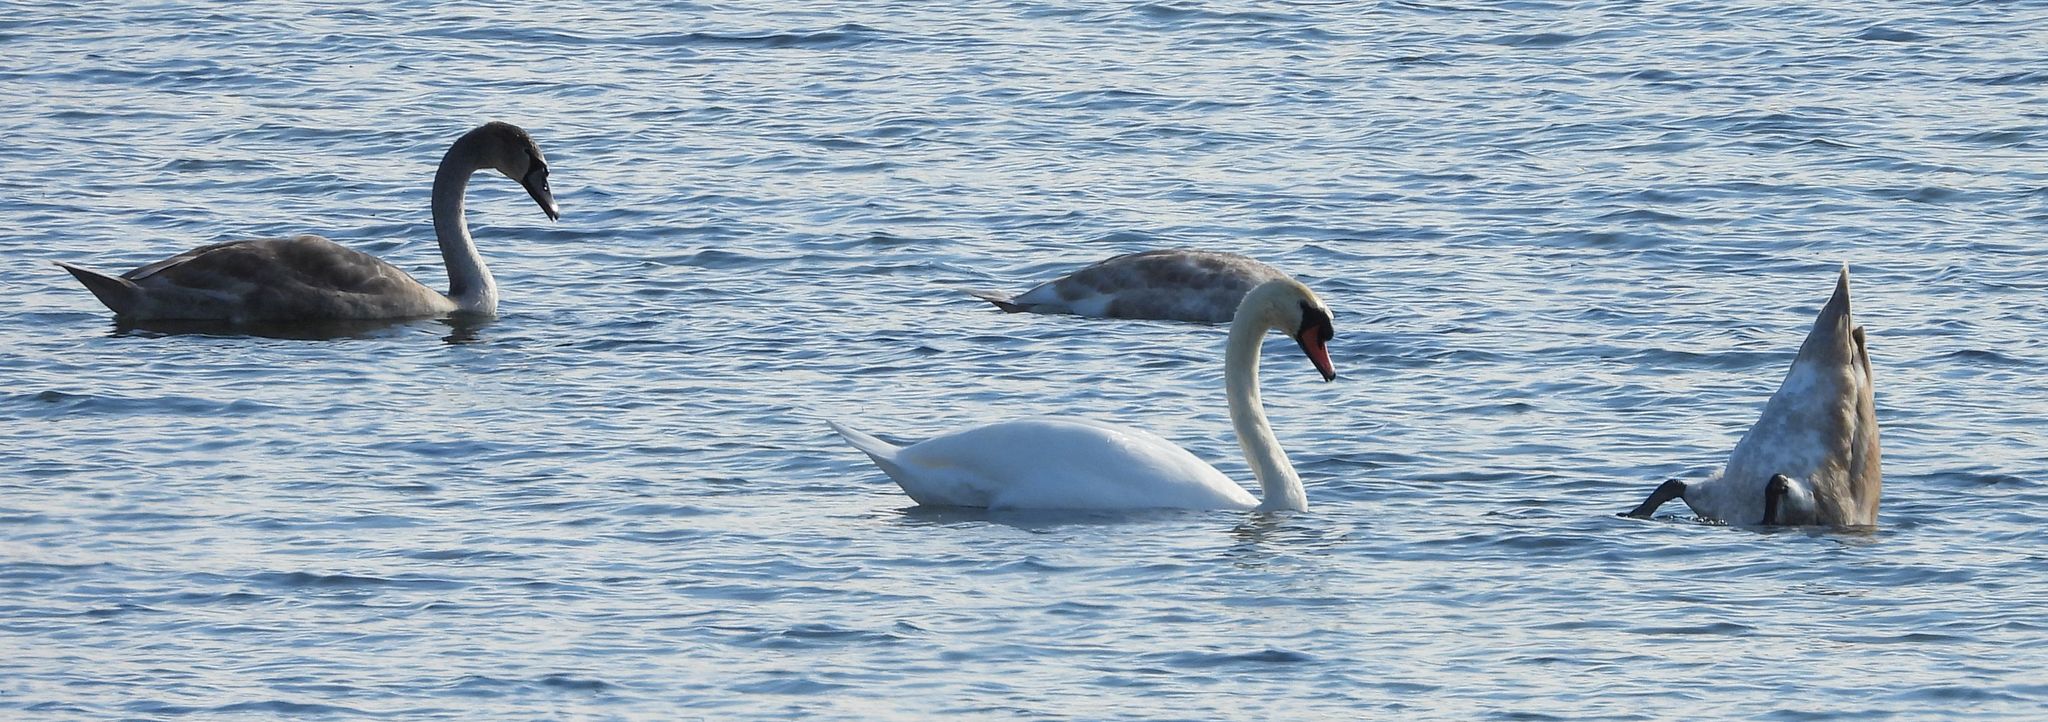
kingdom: Animalia
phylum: Chordata
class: Aves
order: Anseriformes
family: Anatidae
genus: Cygnus
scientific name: Cygnus olor
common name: Mute swan
